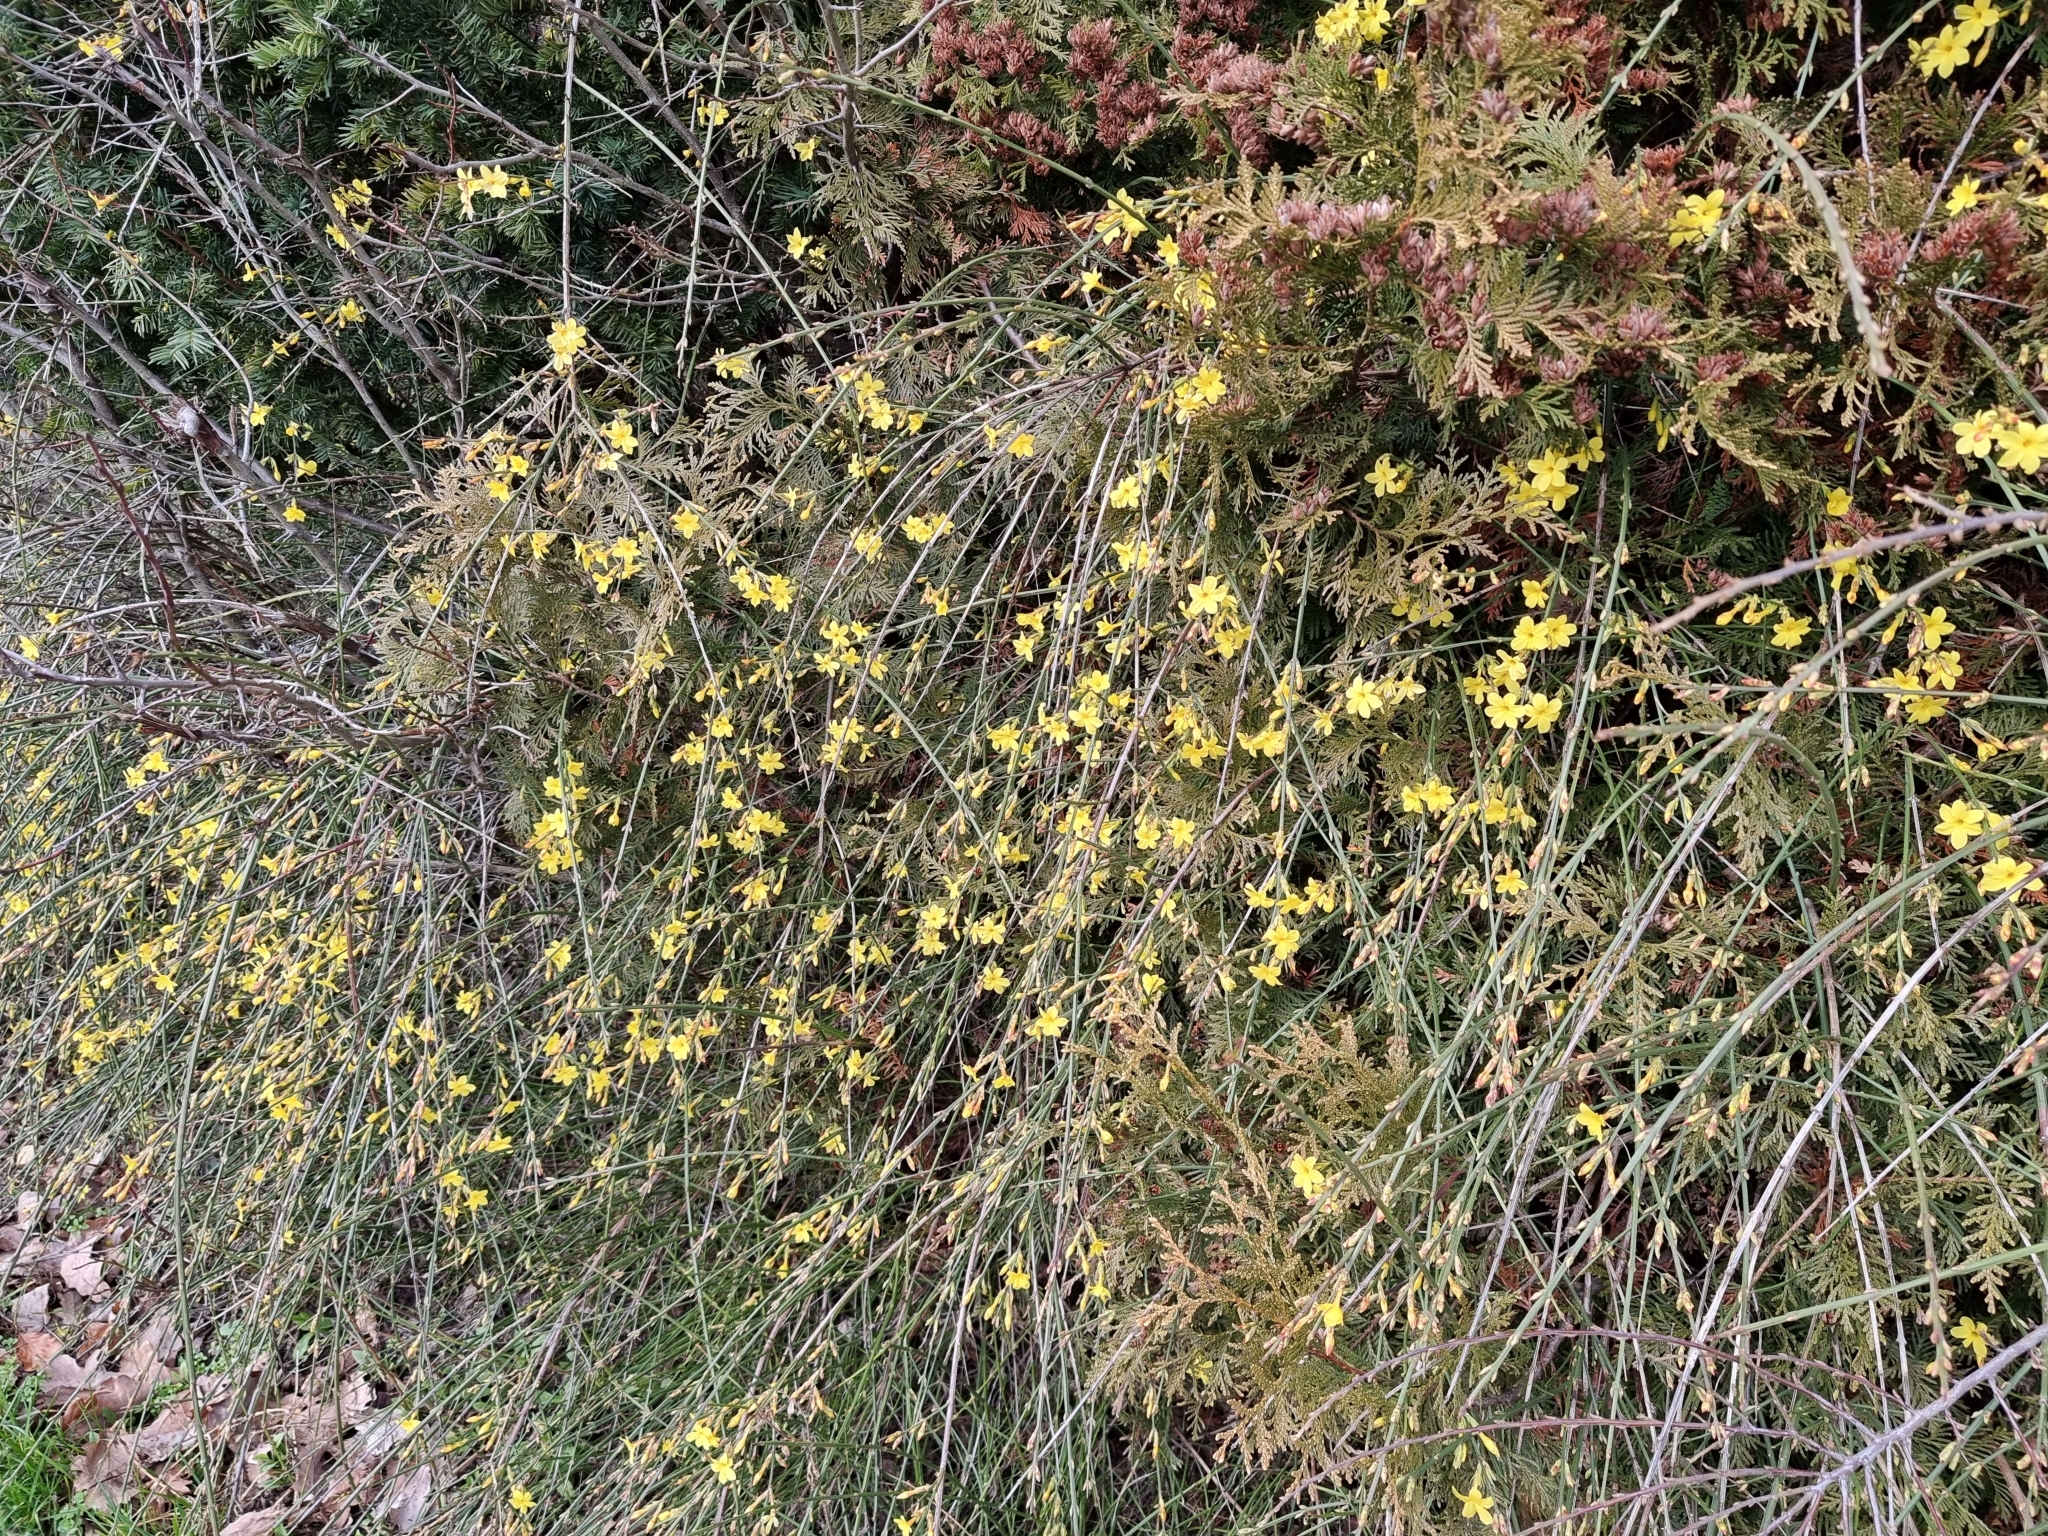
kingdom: Plantae
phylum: Tracheophyta
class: Magnoliopsida
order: Lamiales
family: Oleaceae
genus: Jasminum
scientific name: Jasminum nudiflorum
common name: Winter jasmine
